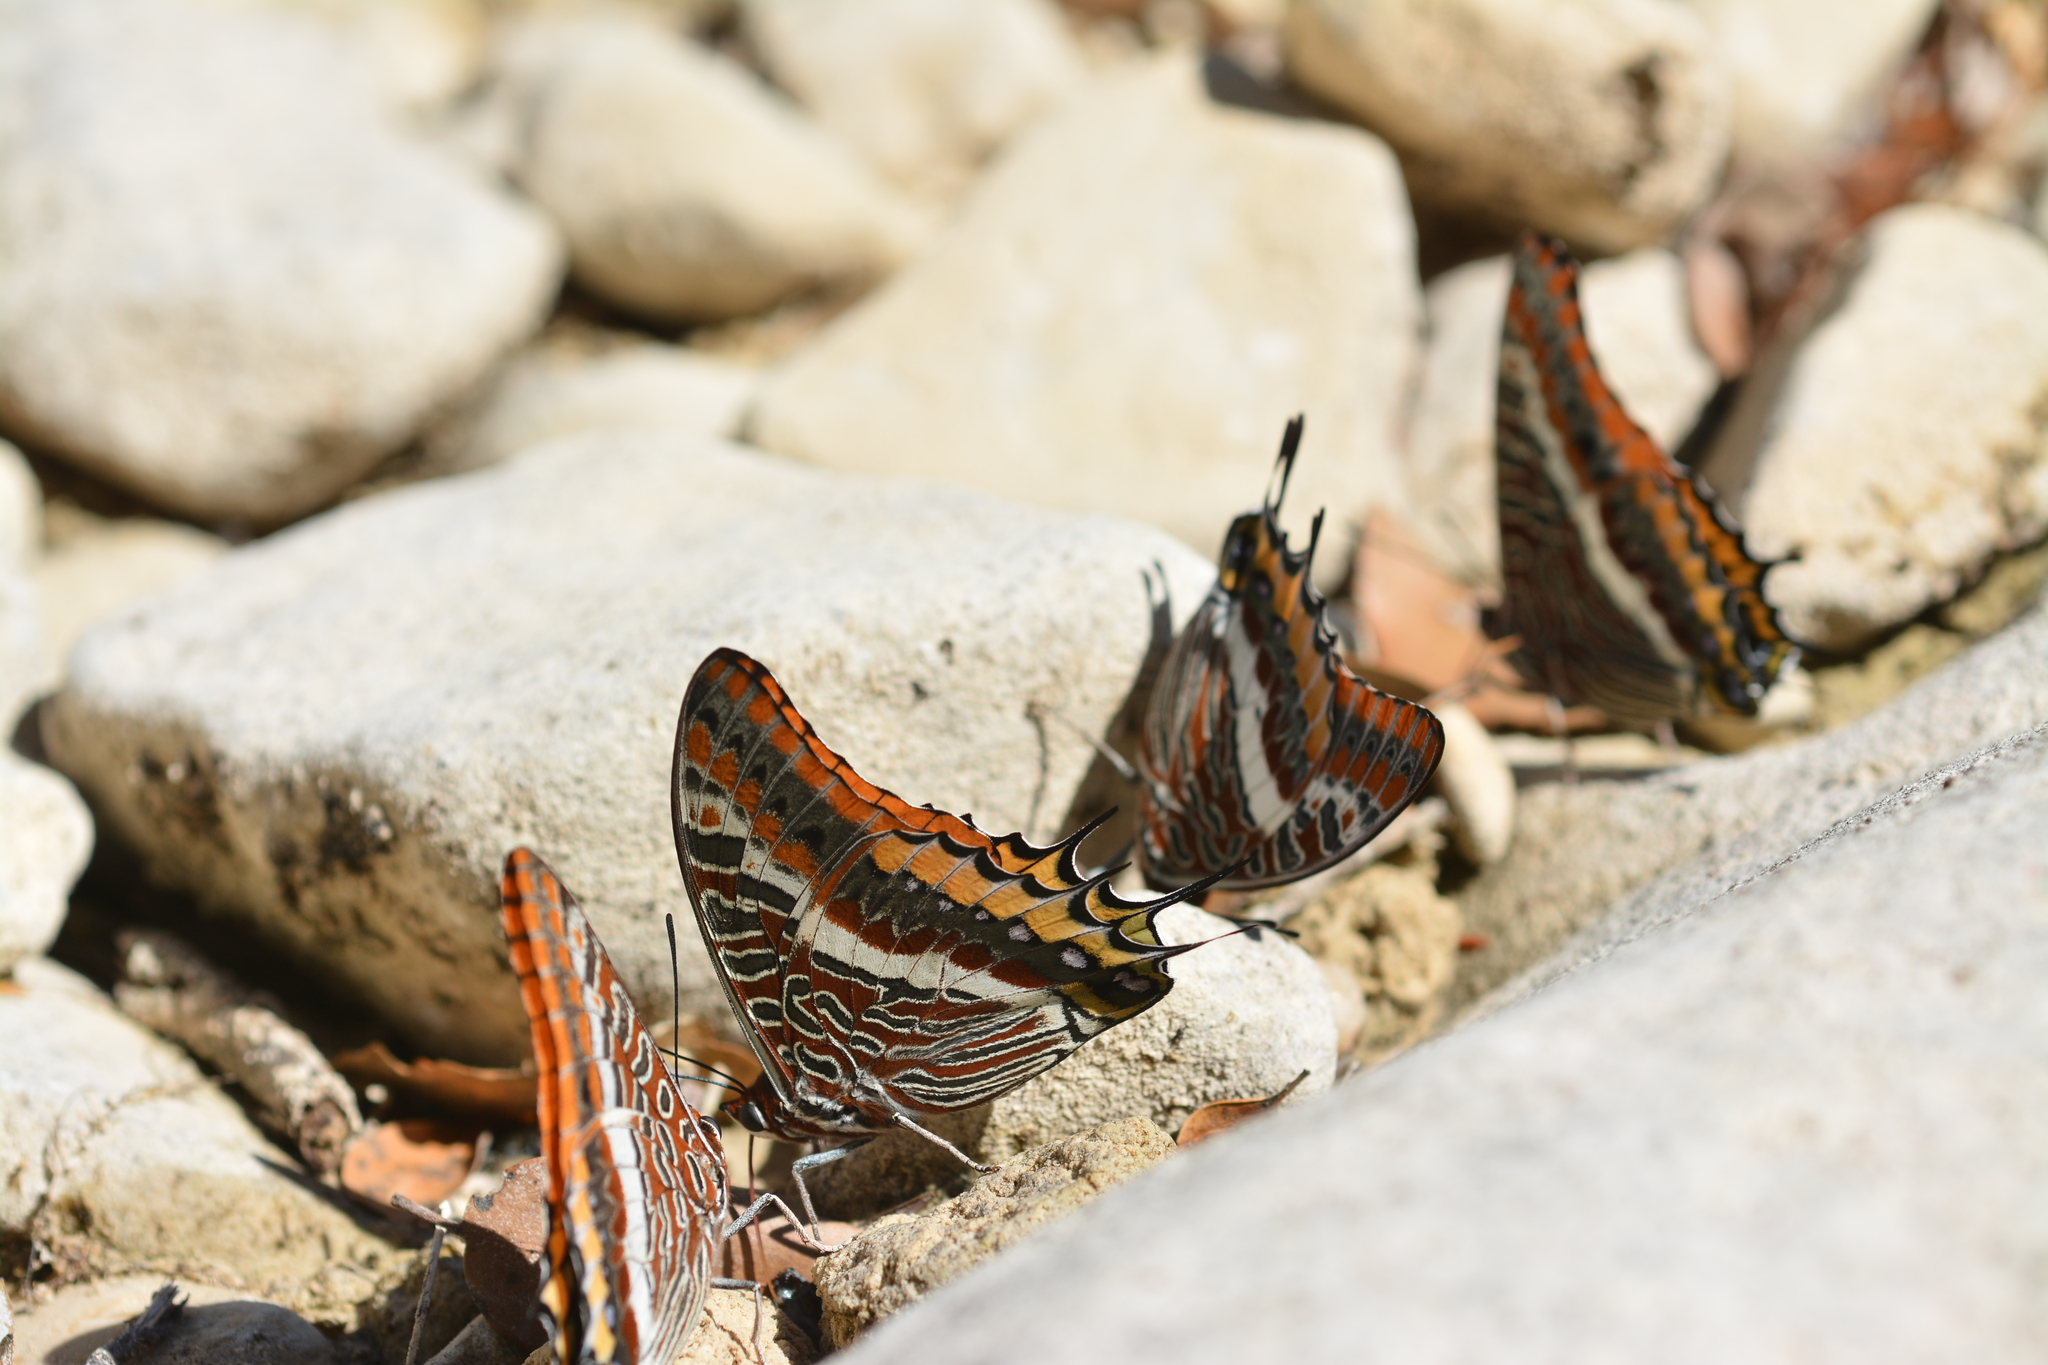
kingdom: Animalia
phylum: Arthropoda
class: Insecta
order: Lepidoptera
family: Nymphalidae
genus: Charaxes
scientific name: Charaxes jasius
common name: Two tailed pasha
